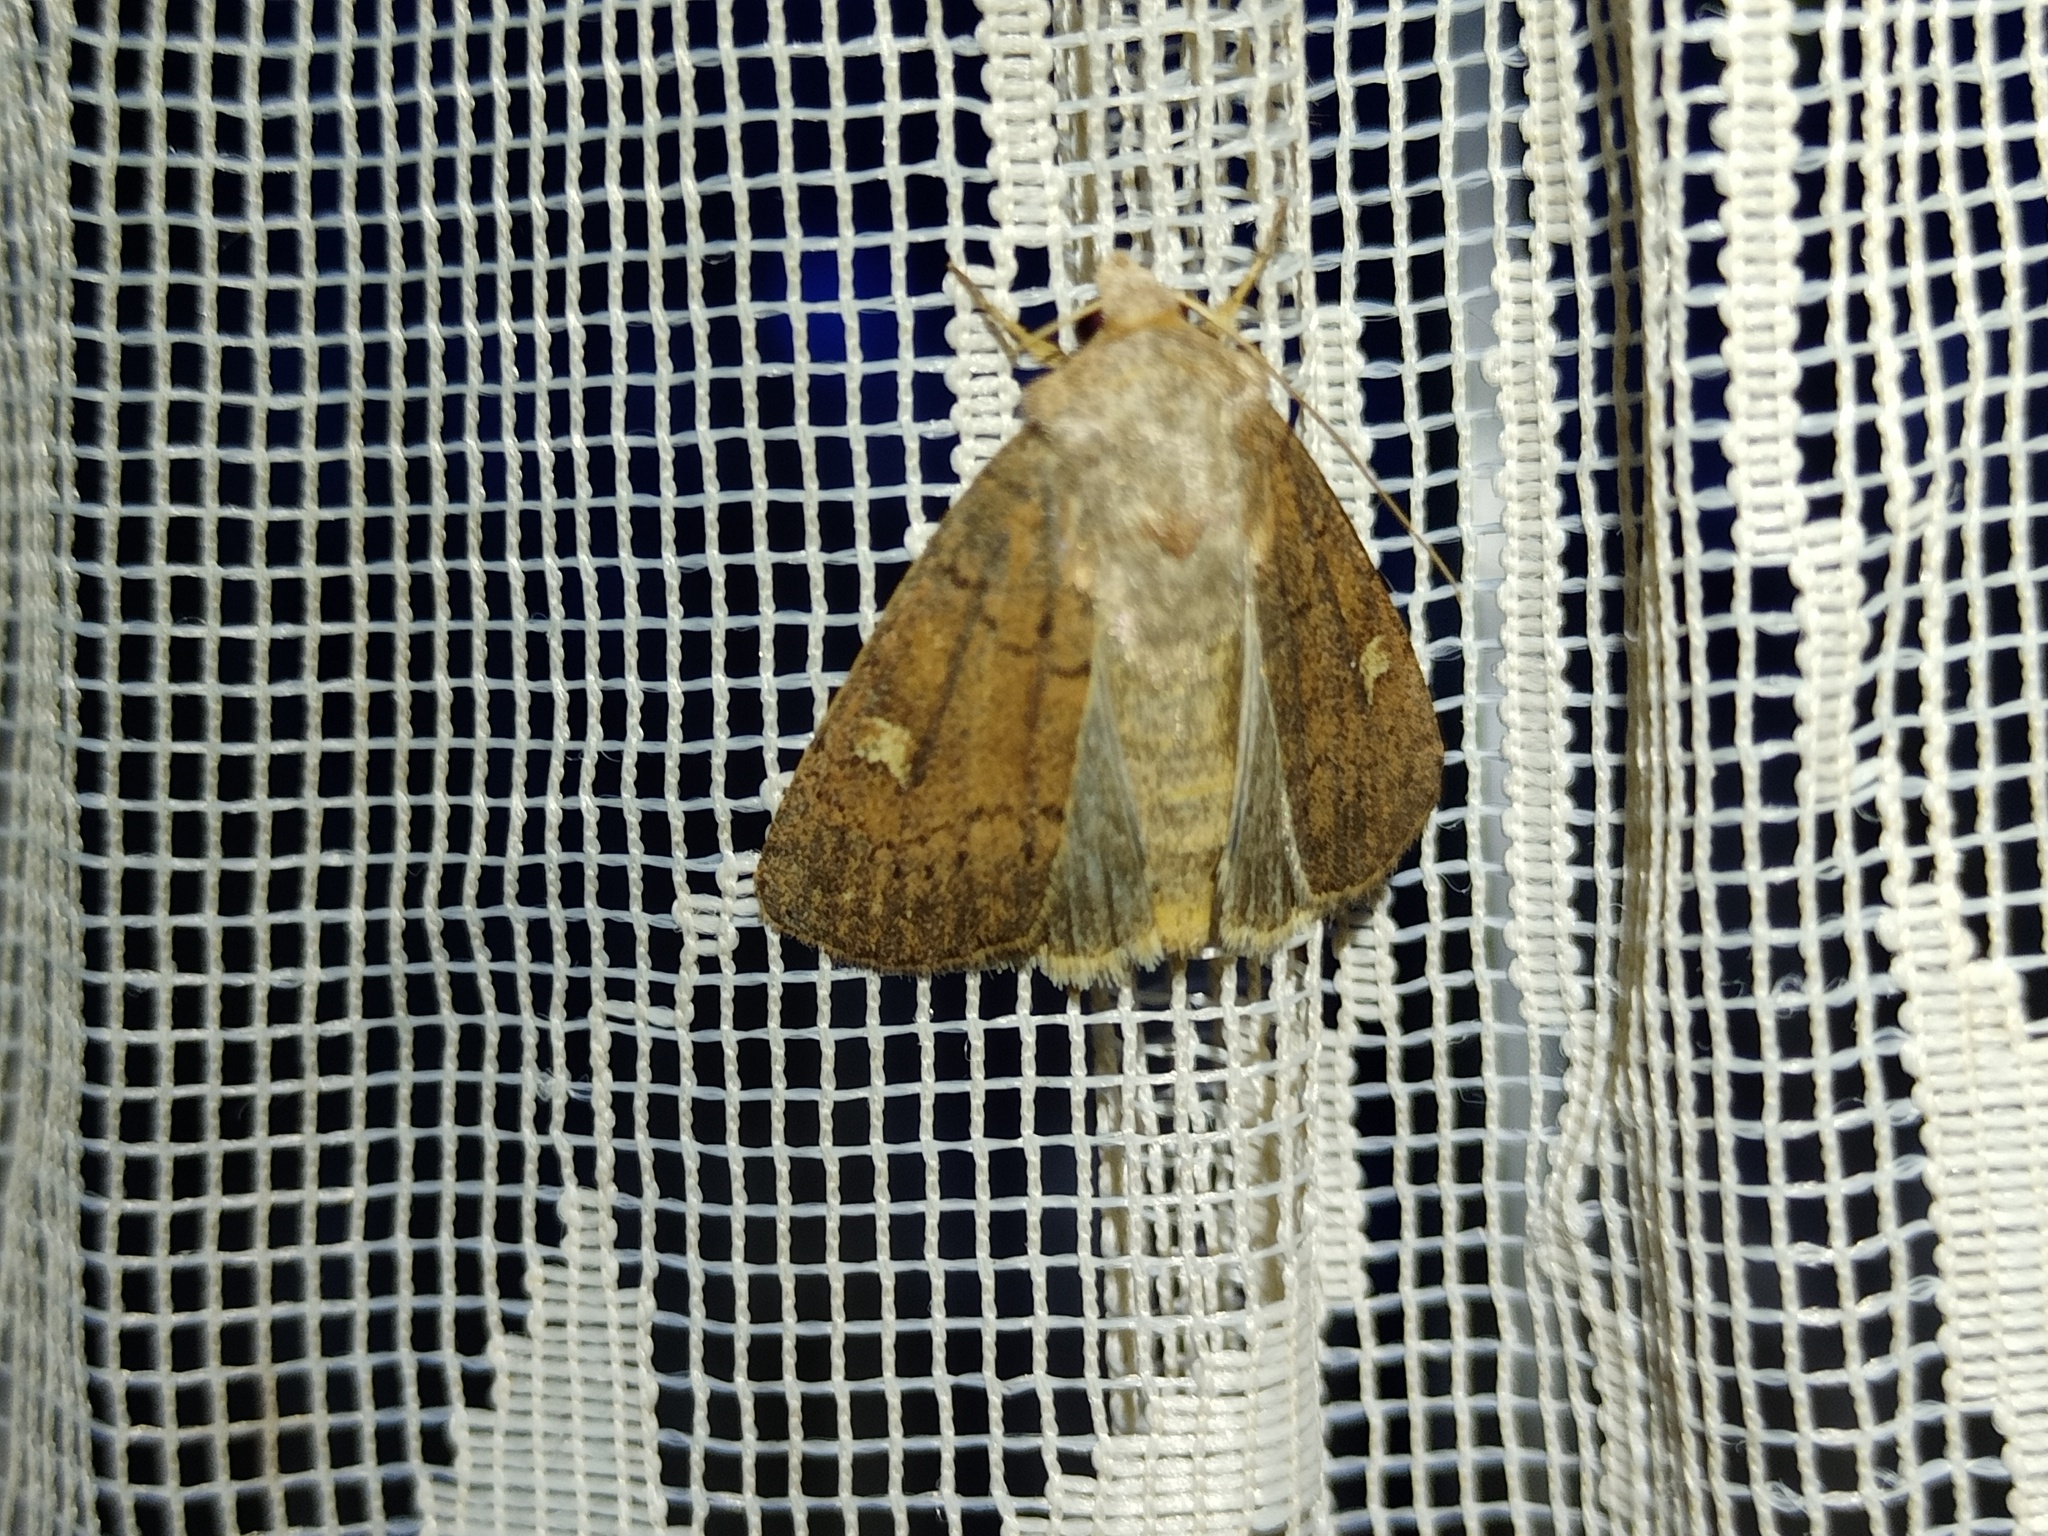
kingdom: Animalia
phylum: Arthropoda
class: Insecta
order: Lepidoptera
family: Noctuidae
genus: Xestia
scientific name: Xestia xanthographa
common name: Square-spot rustic
